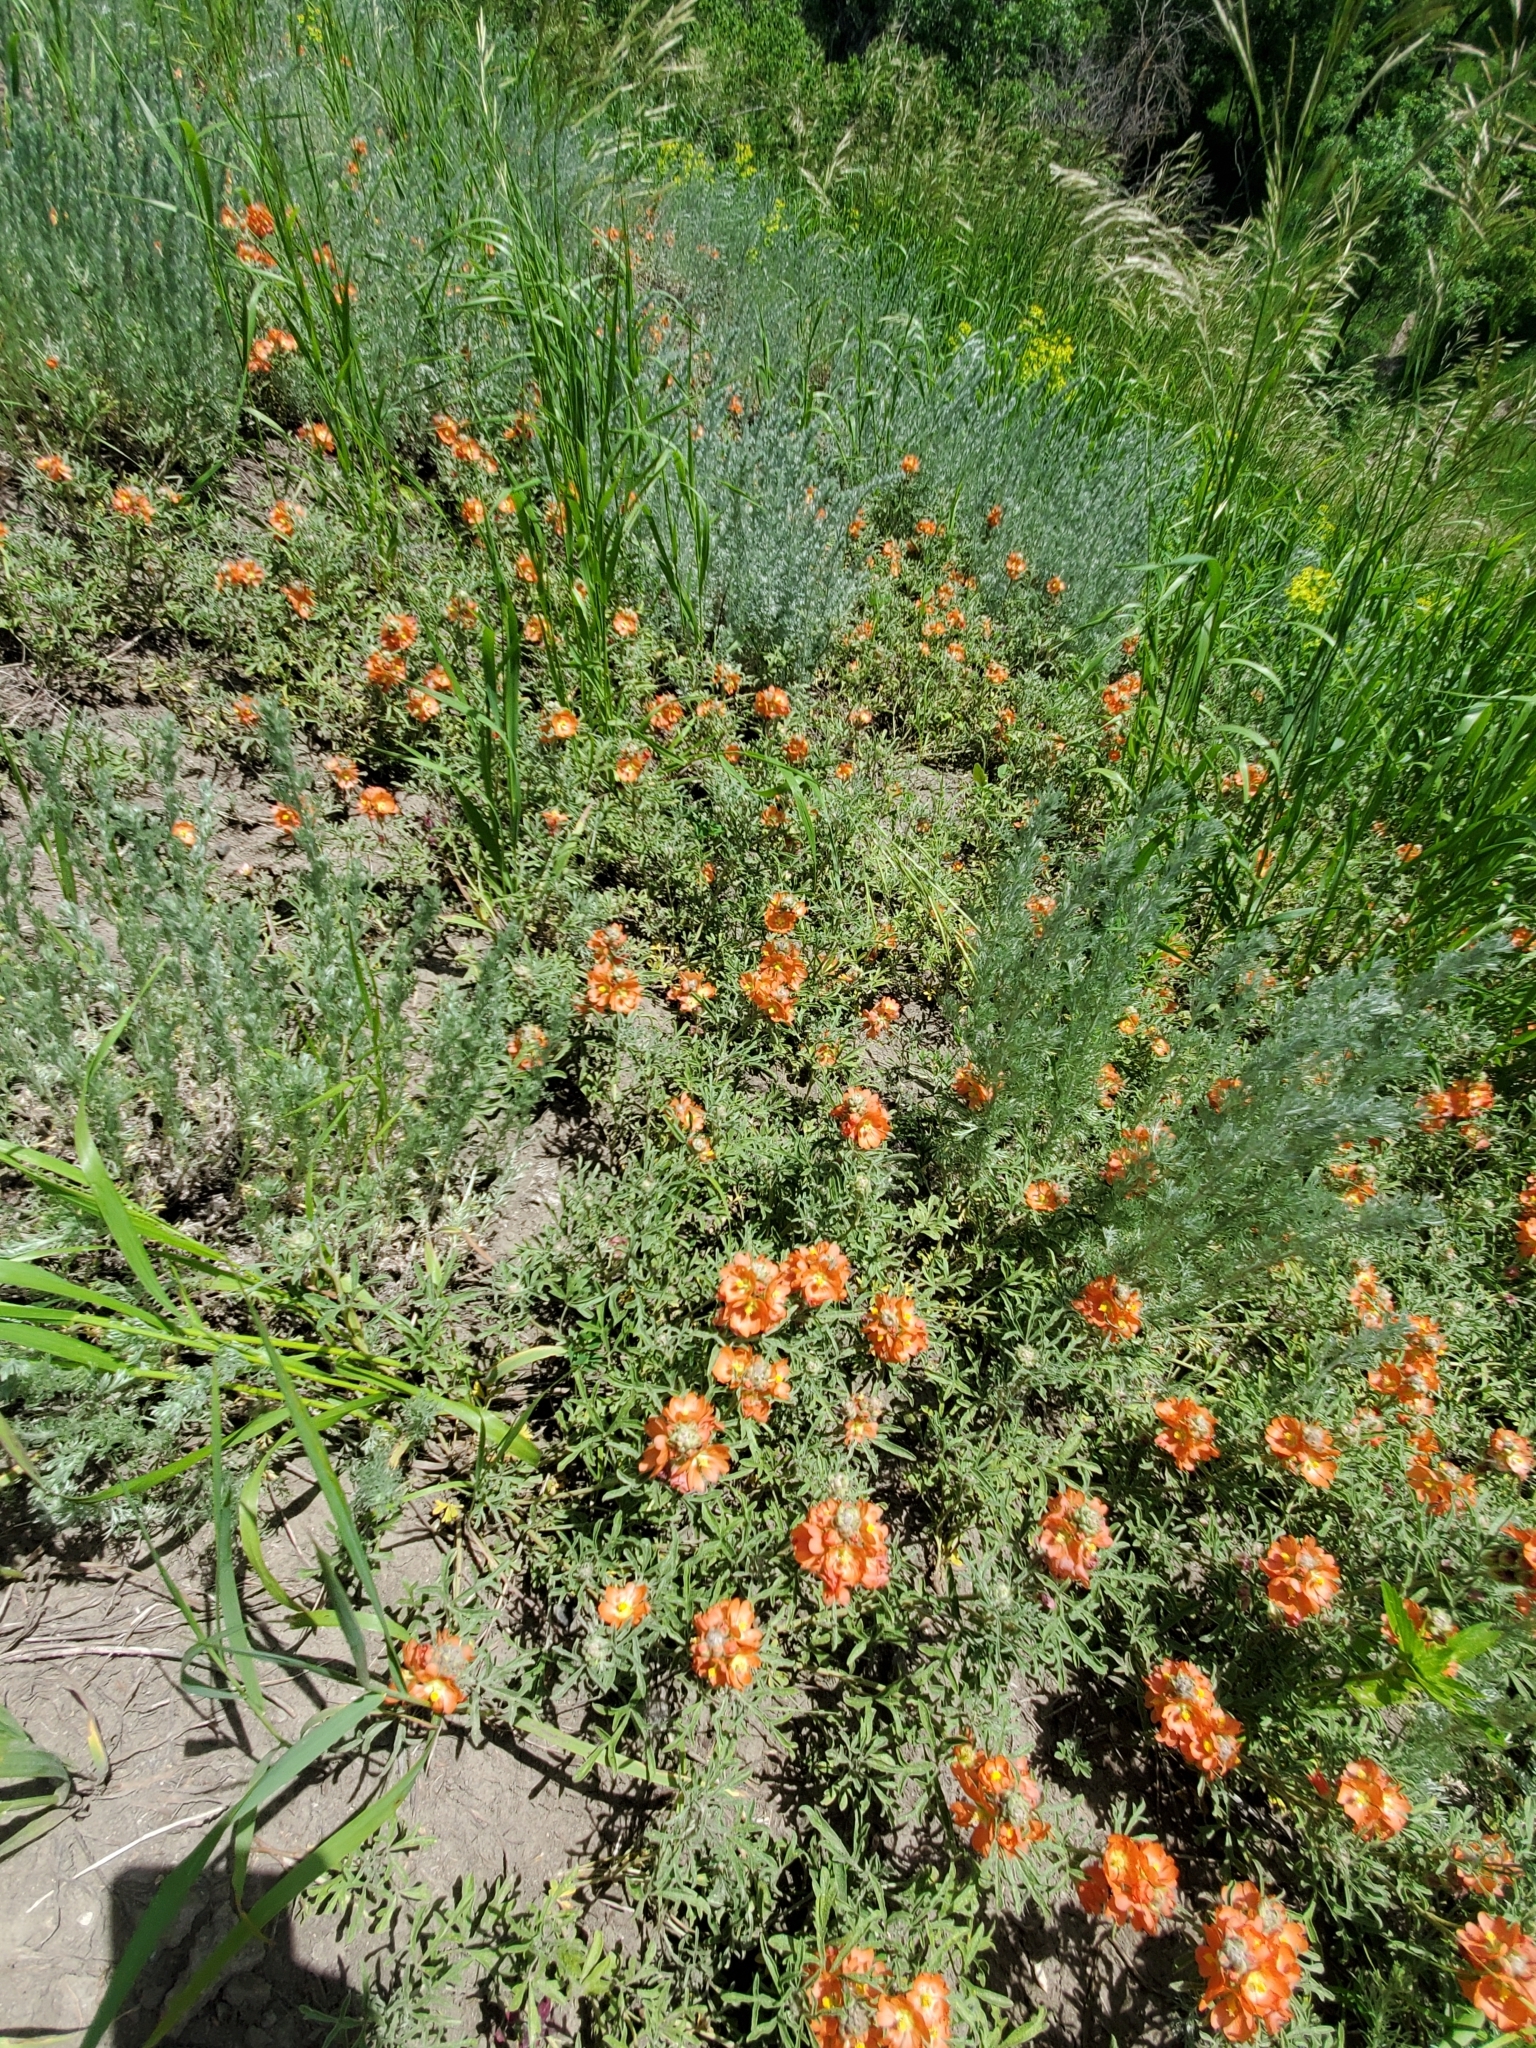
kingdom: Plantae
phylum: Tracheophyta
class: Magnoliopsida
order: Malvales
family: Malvaceae
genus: Sphaeralcea
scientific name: Sphaeralcea coccinea
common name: Moss-rose
